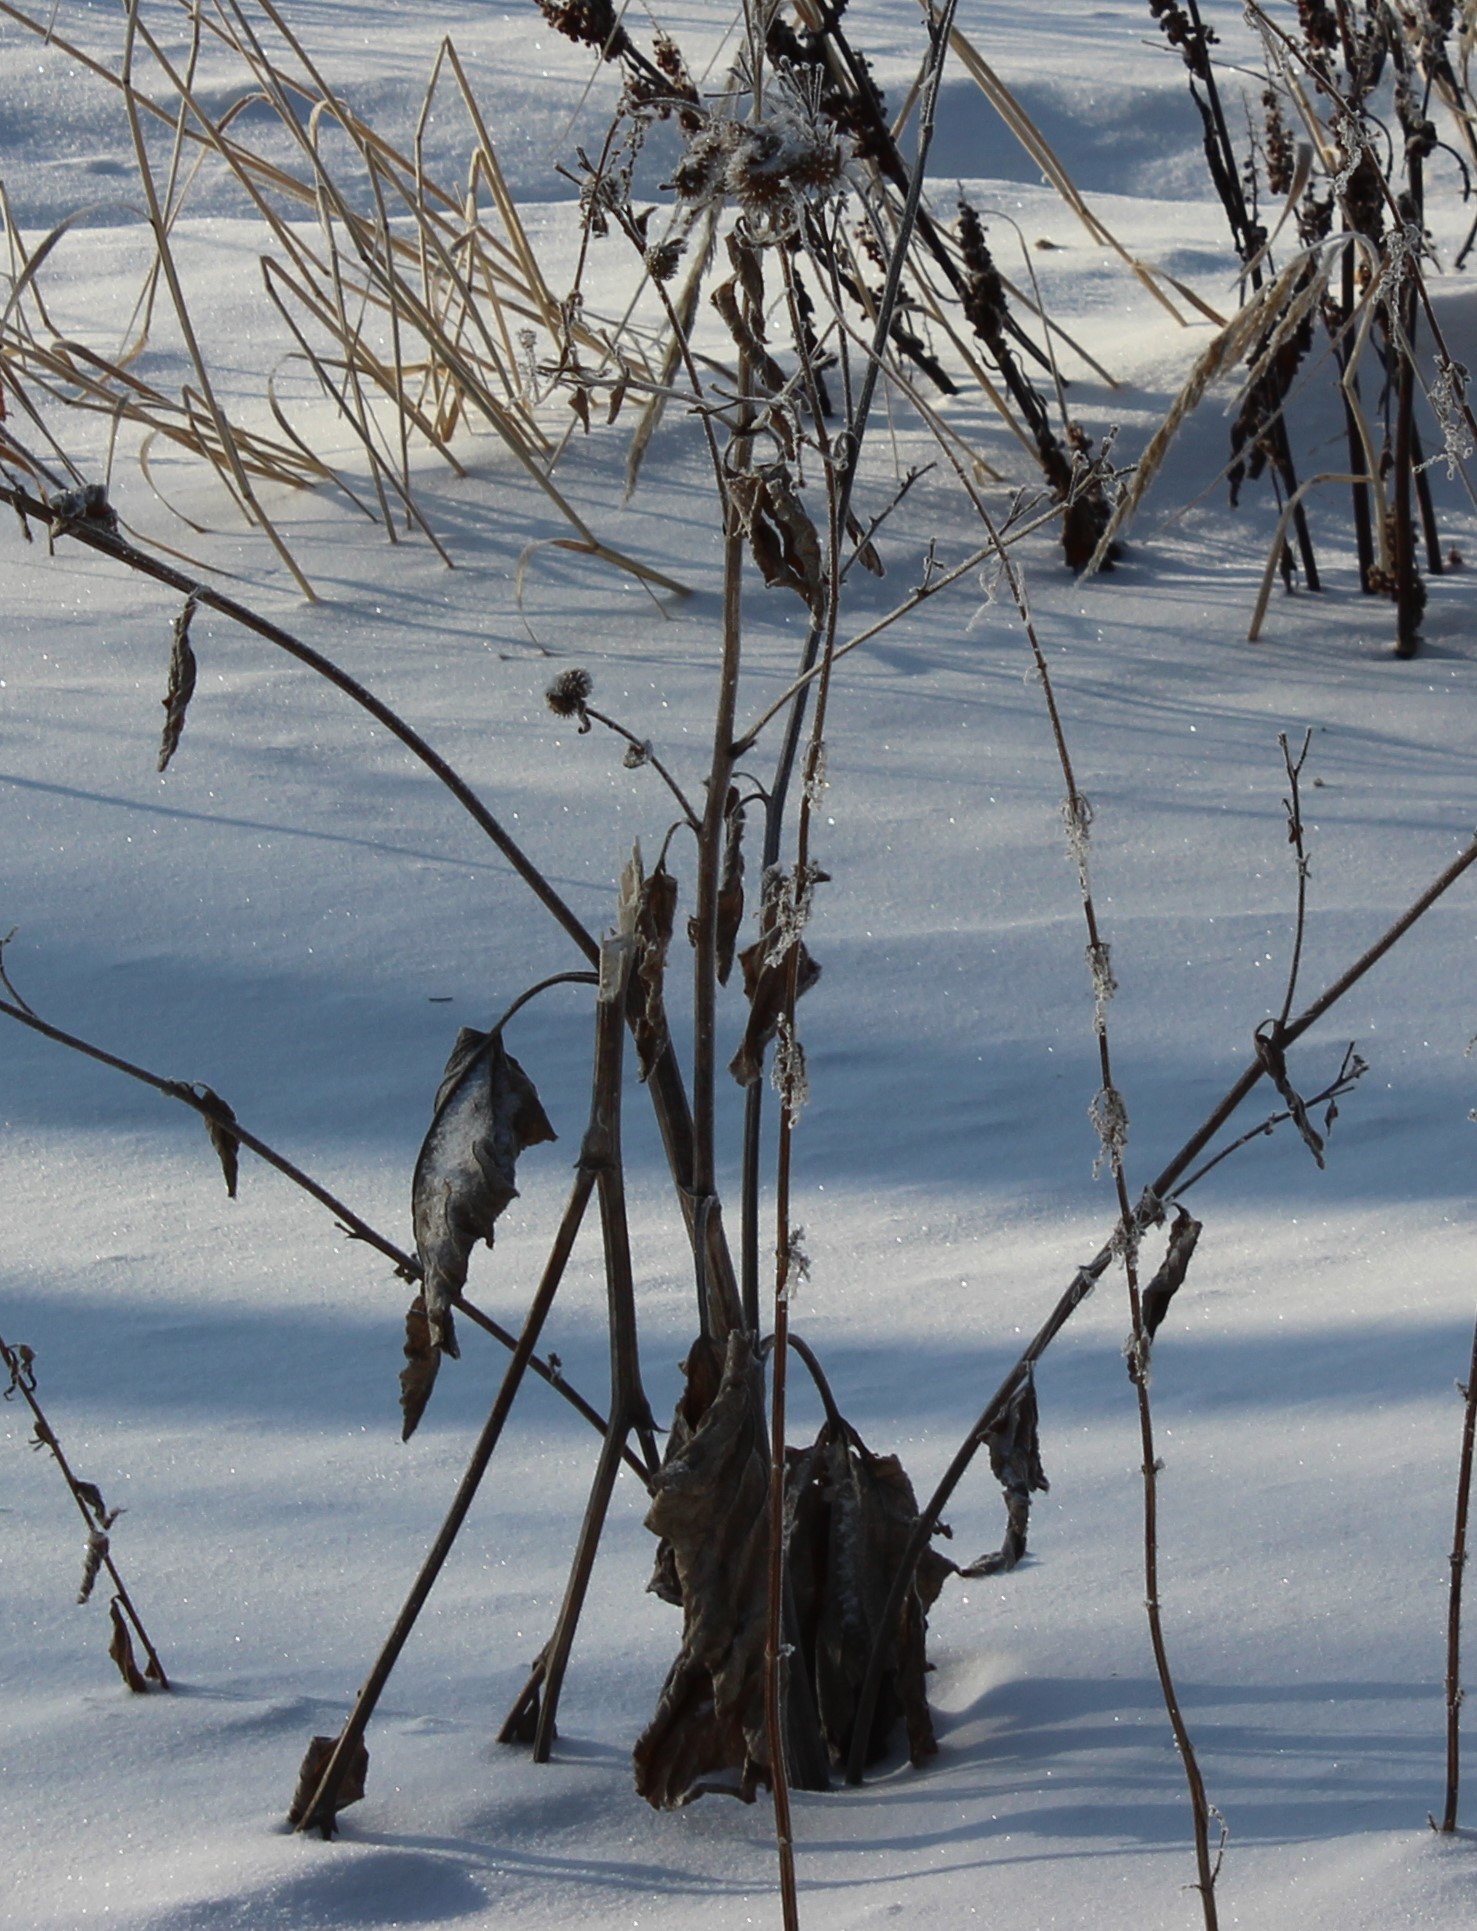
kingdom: Plantae
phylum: Tracheophyta
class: Magnoliopsida
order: Asterales
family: Asteraceae
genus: Arctium
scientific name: Arctium tomentosum
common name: Woolly burdock
